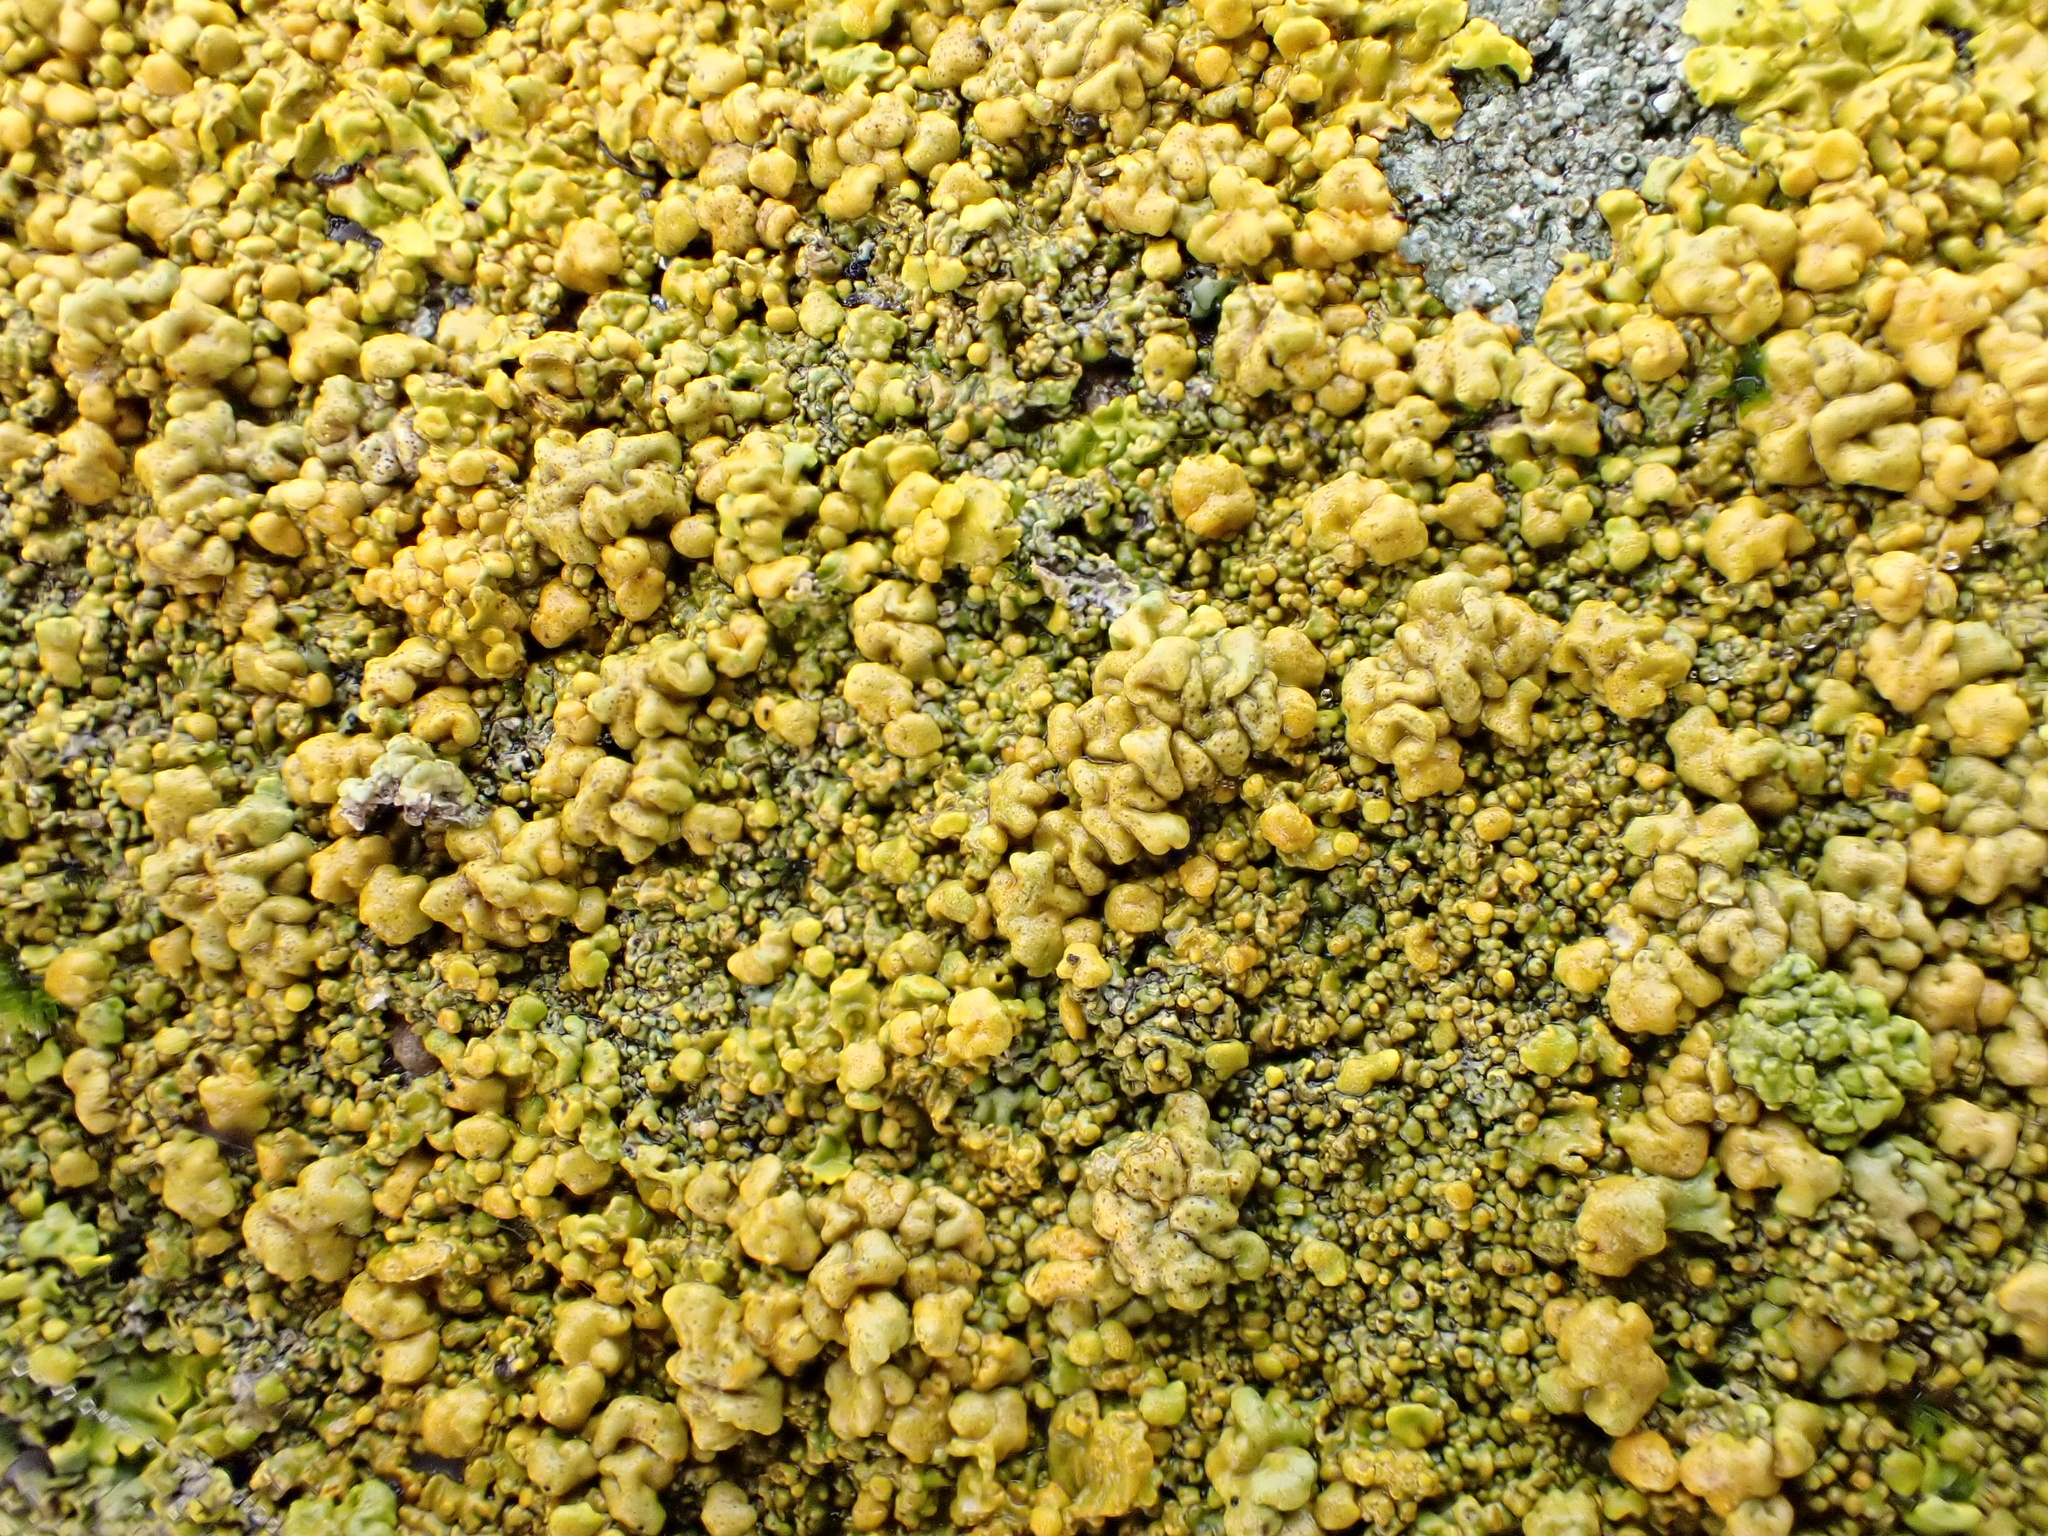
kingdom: Fungi
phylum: Ascomycota
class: Lecanoromycetes
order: Teloschistales
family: Teloschistaceae
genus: Xanthoria
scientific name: Xanthoria calcicola
